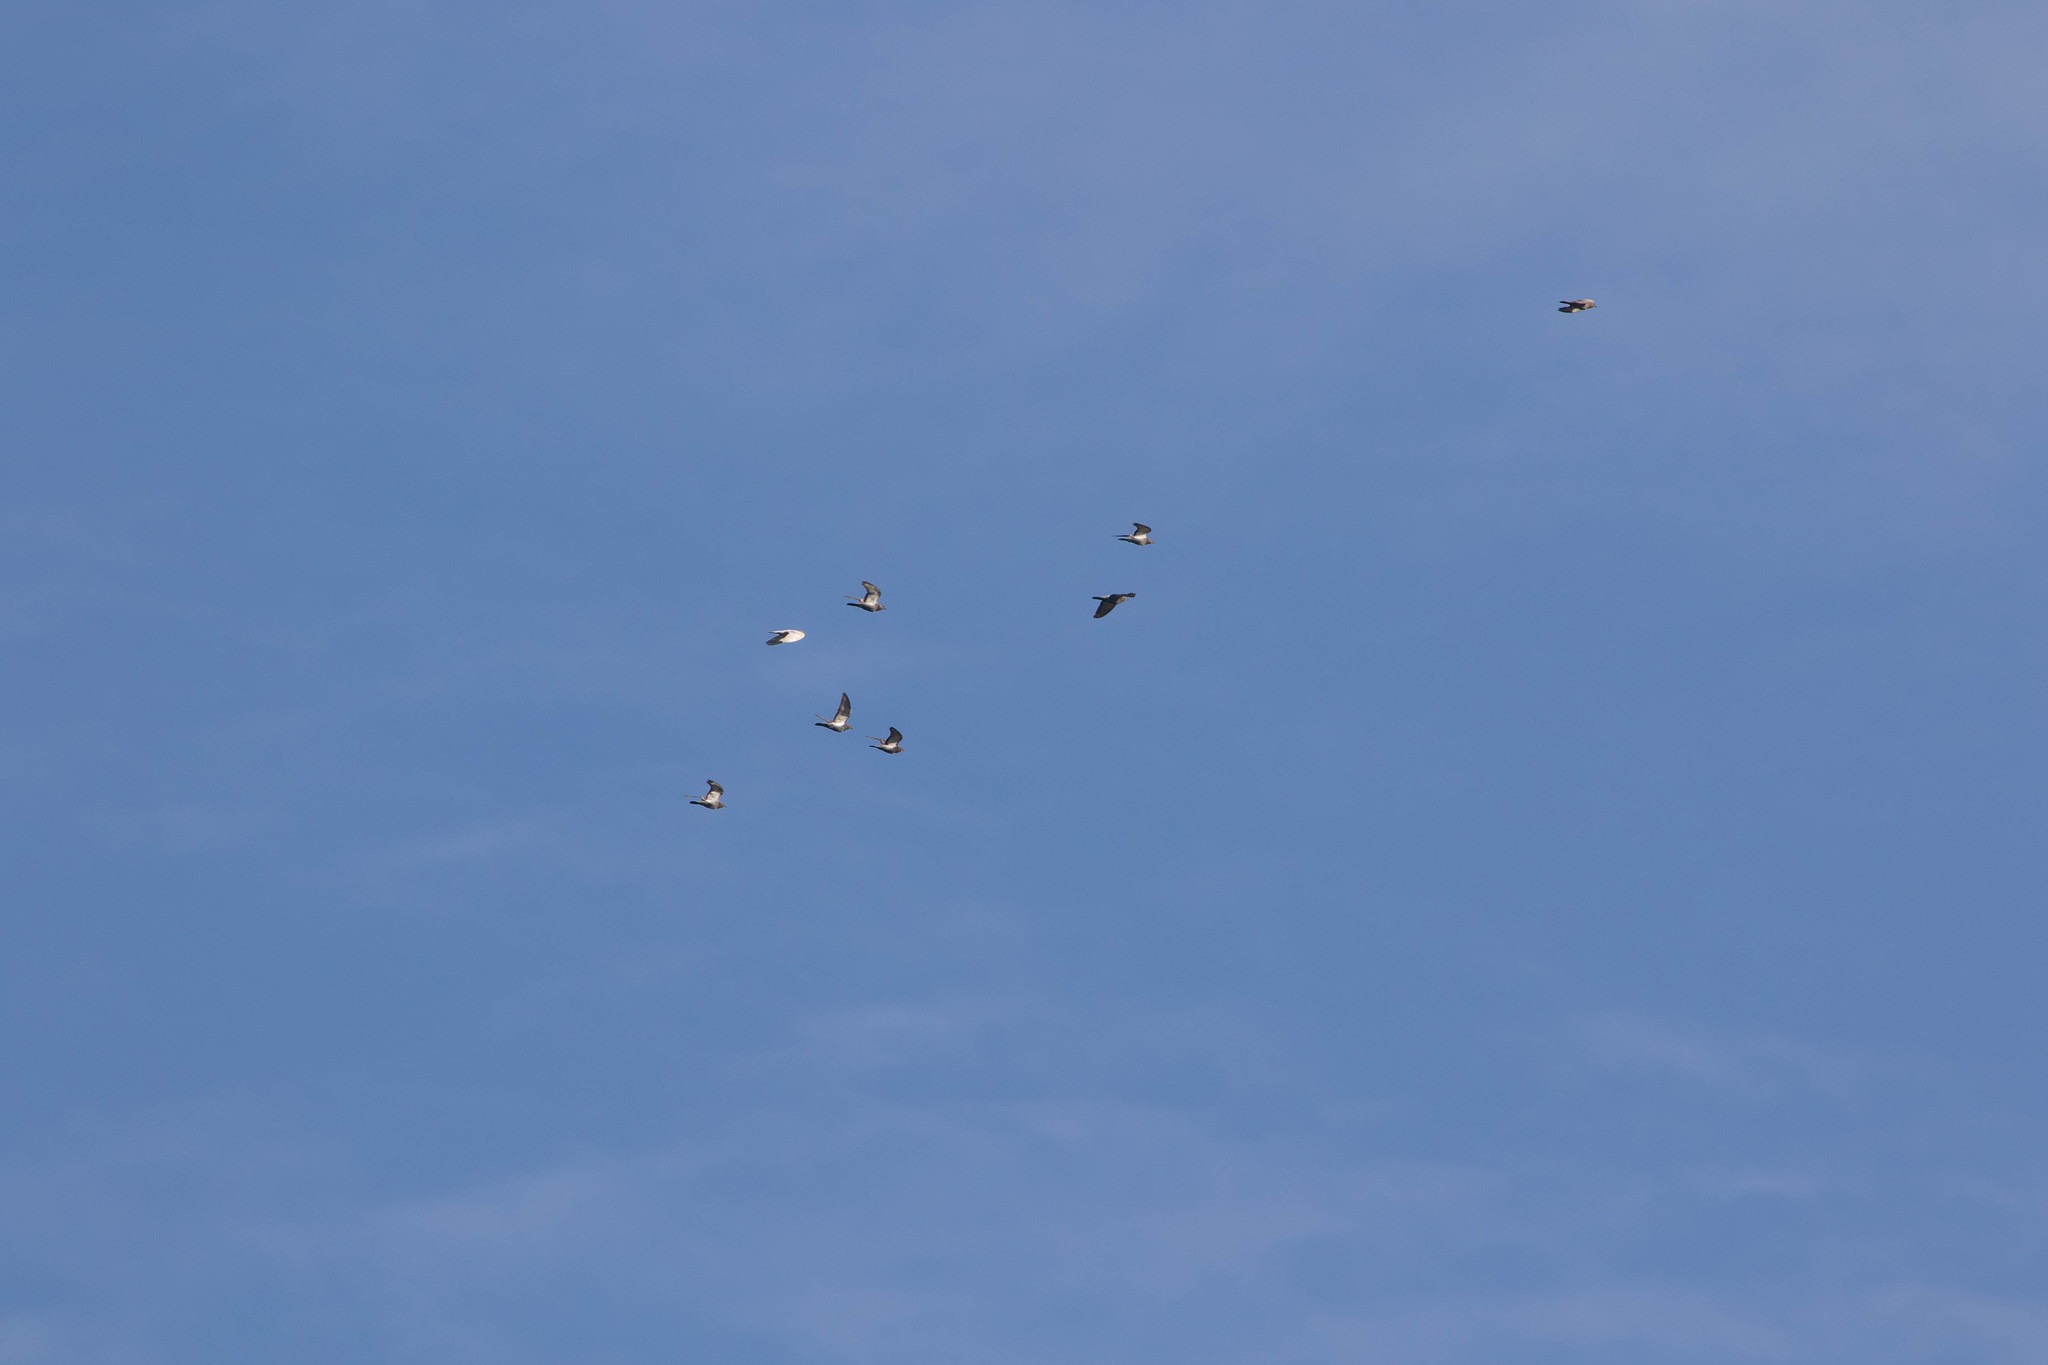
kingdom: Animalia
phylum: Chordata
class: Aves
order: Columbiformes
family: Columbidae
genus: Columba
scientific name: Columba livia
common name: Rock pigeon
